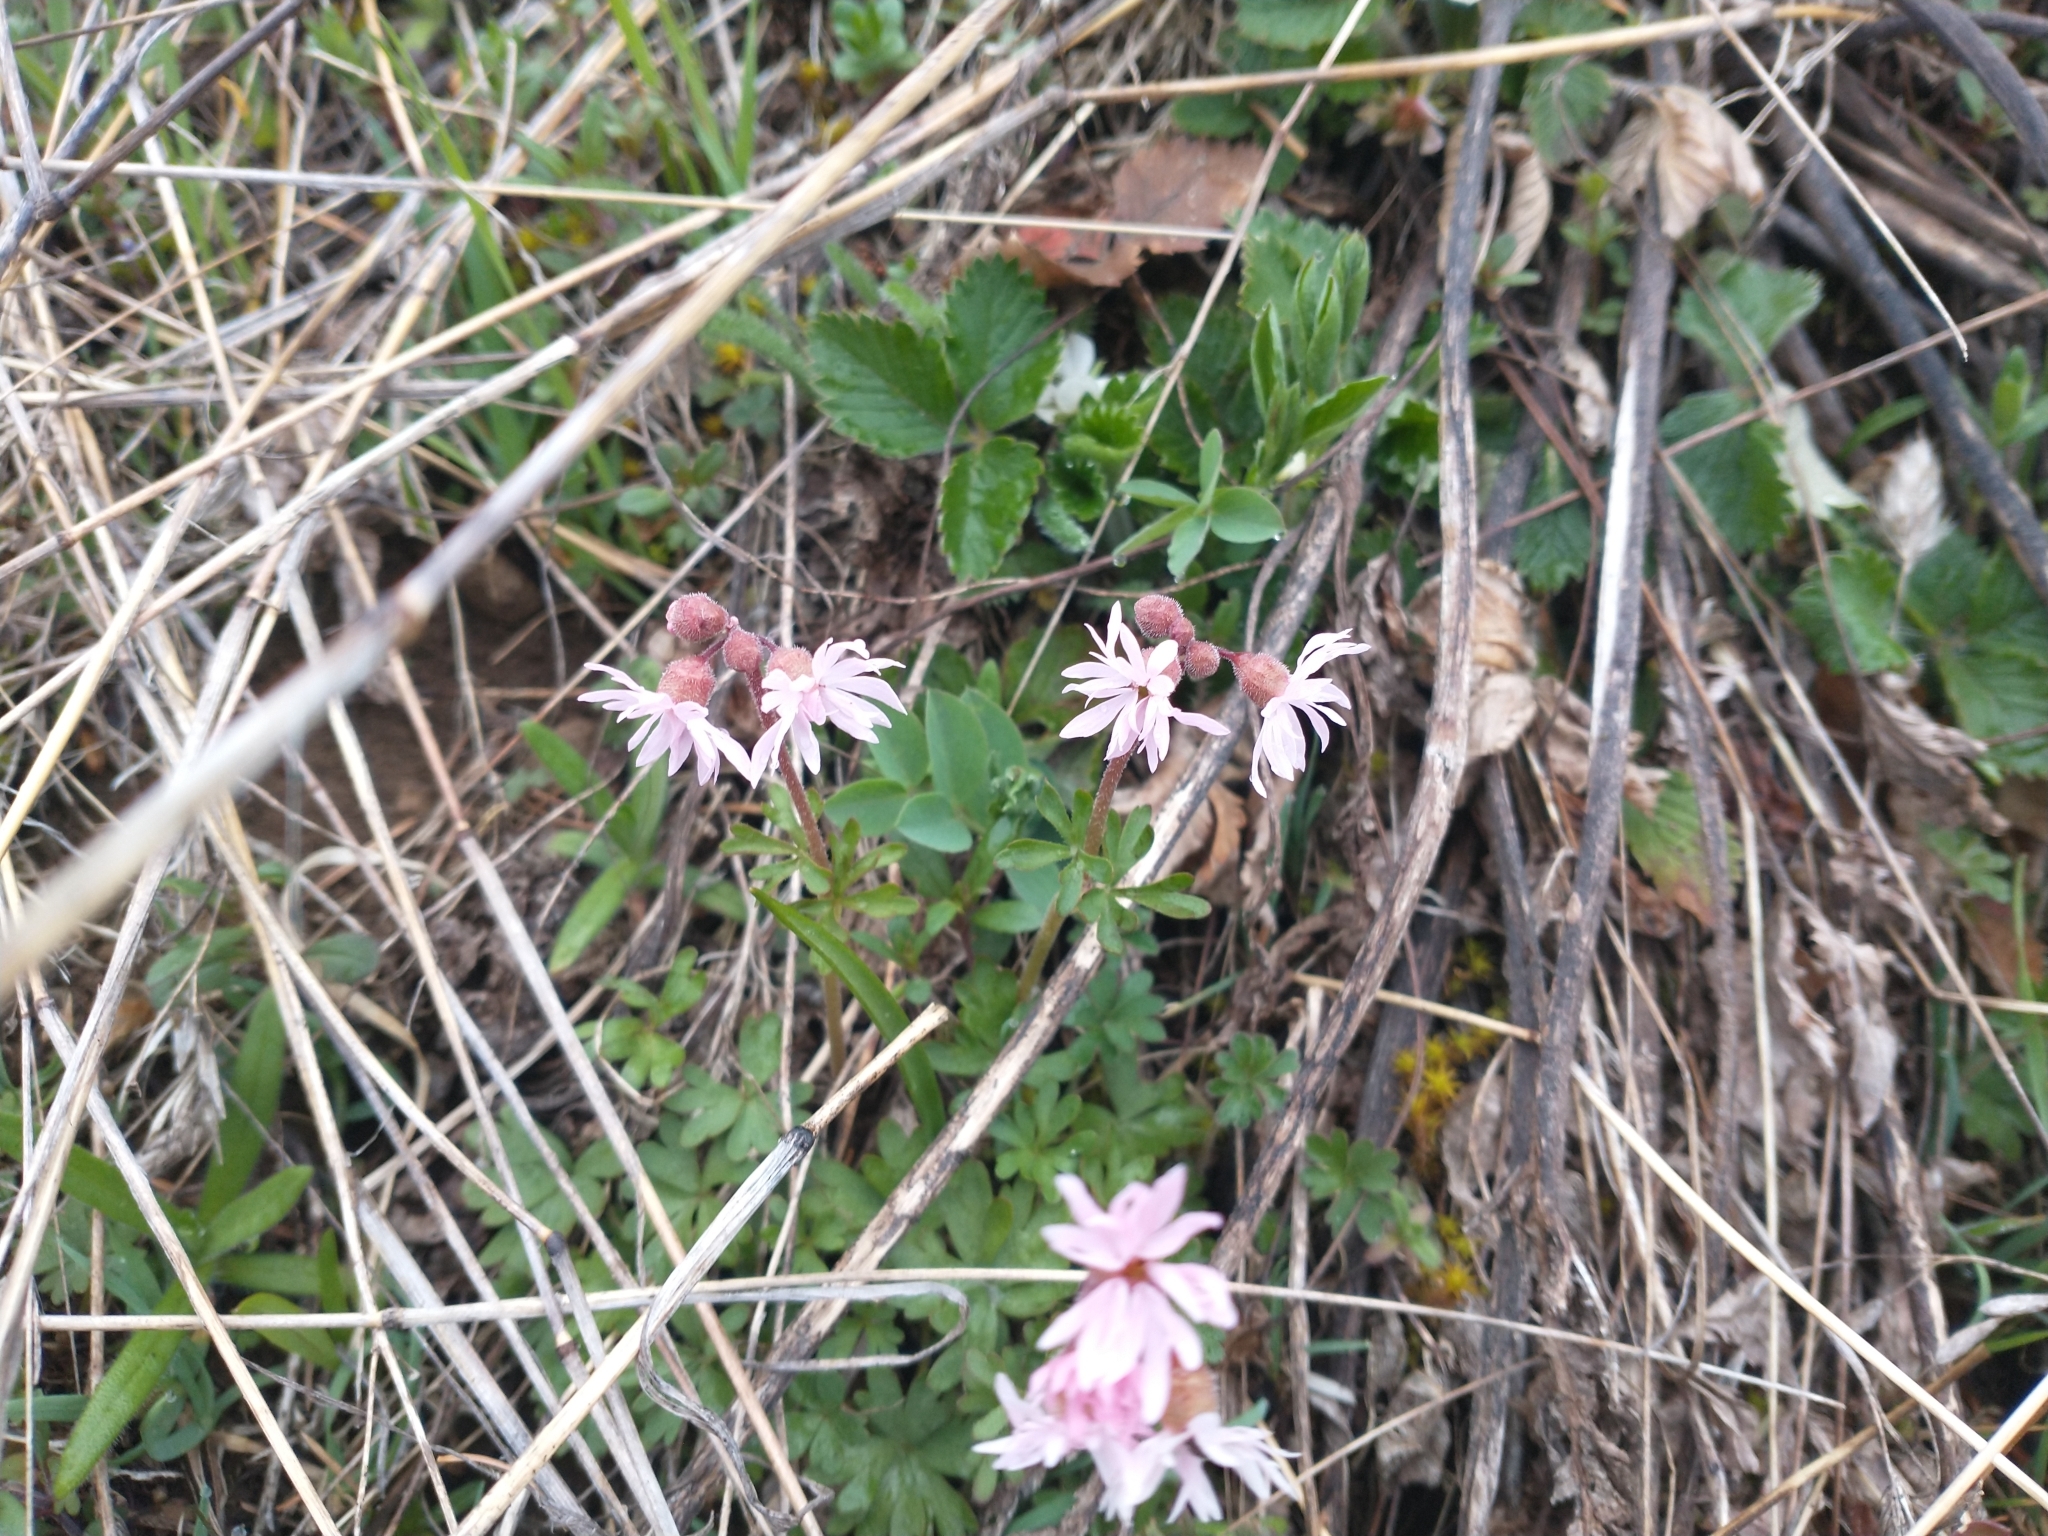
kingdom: Plantae
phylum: Tracheophyta
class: Magnoliopsida
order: Saxifragales
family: Saxifragaceae
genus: Lithophragma
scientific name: Lithophragma glabrum
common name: Bulbous prairie-star
